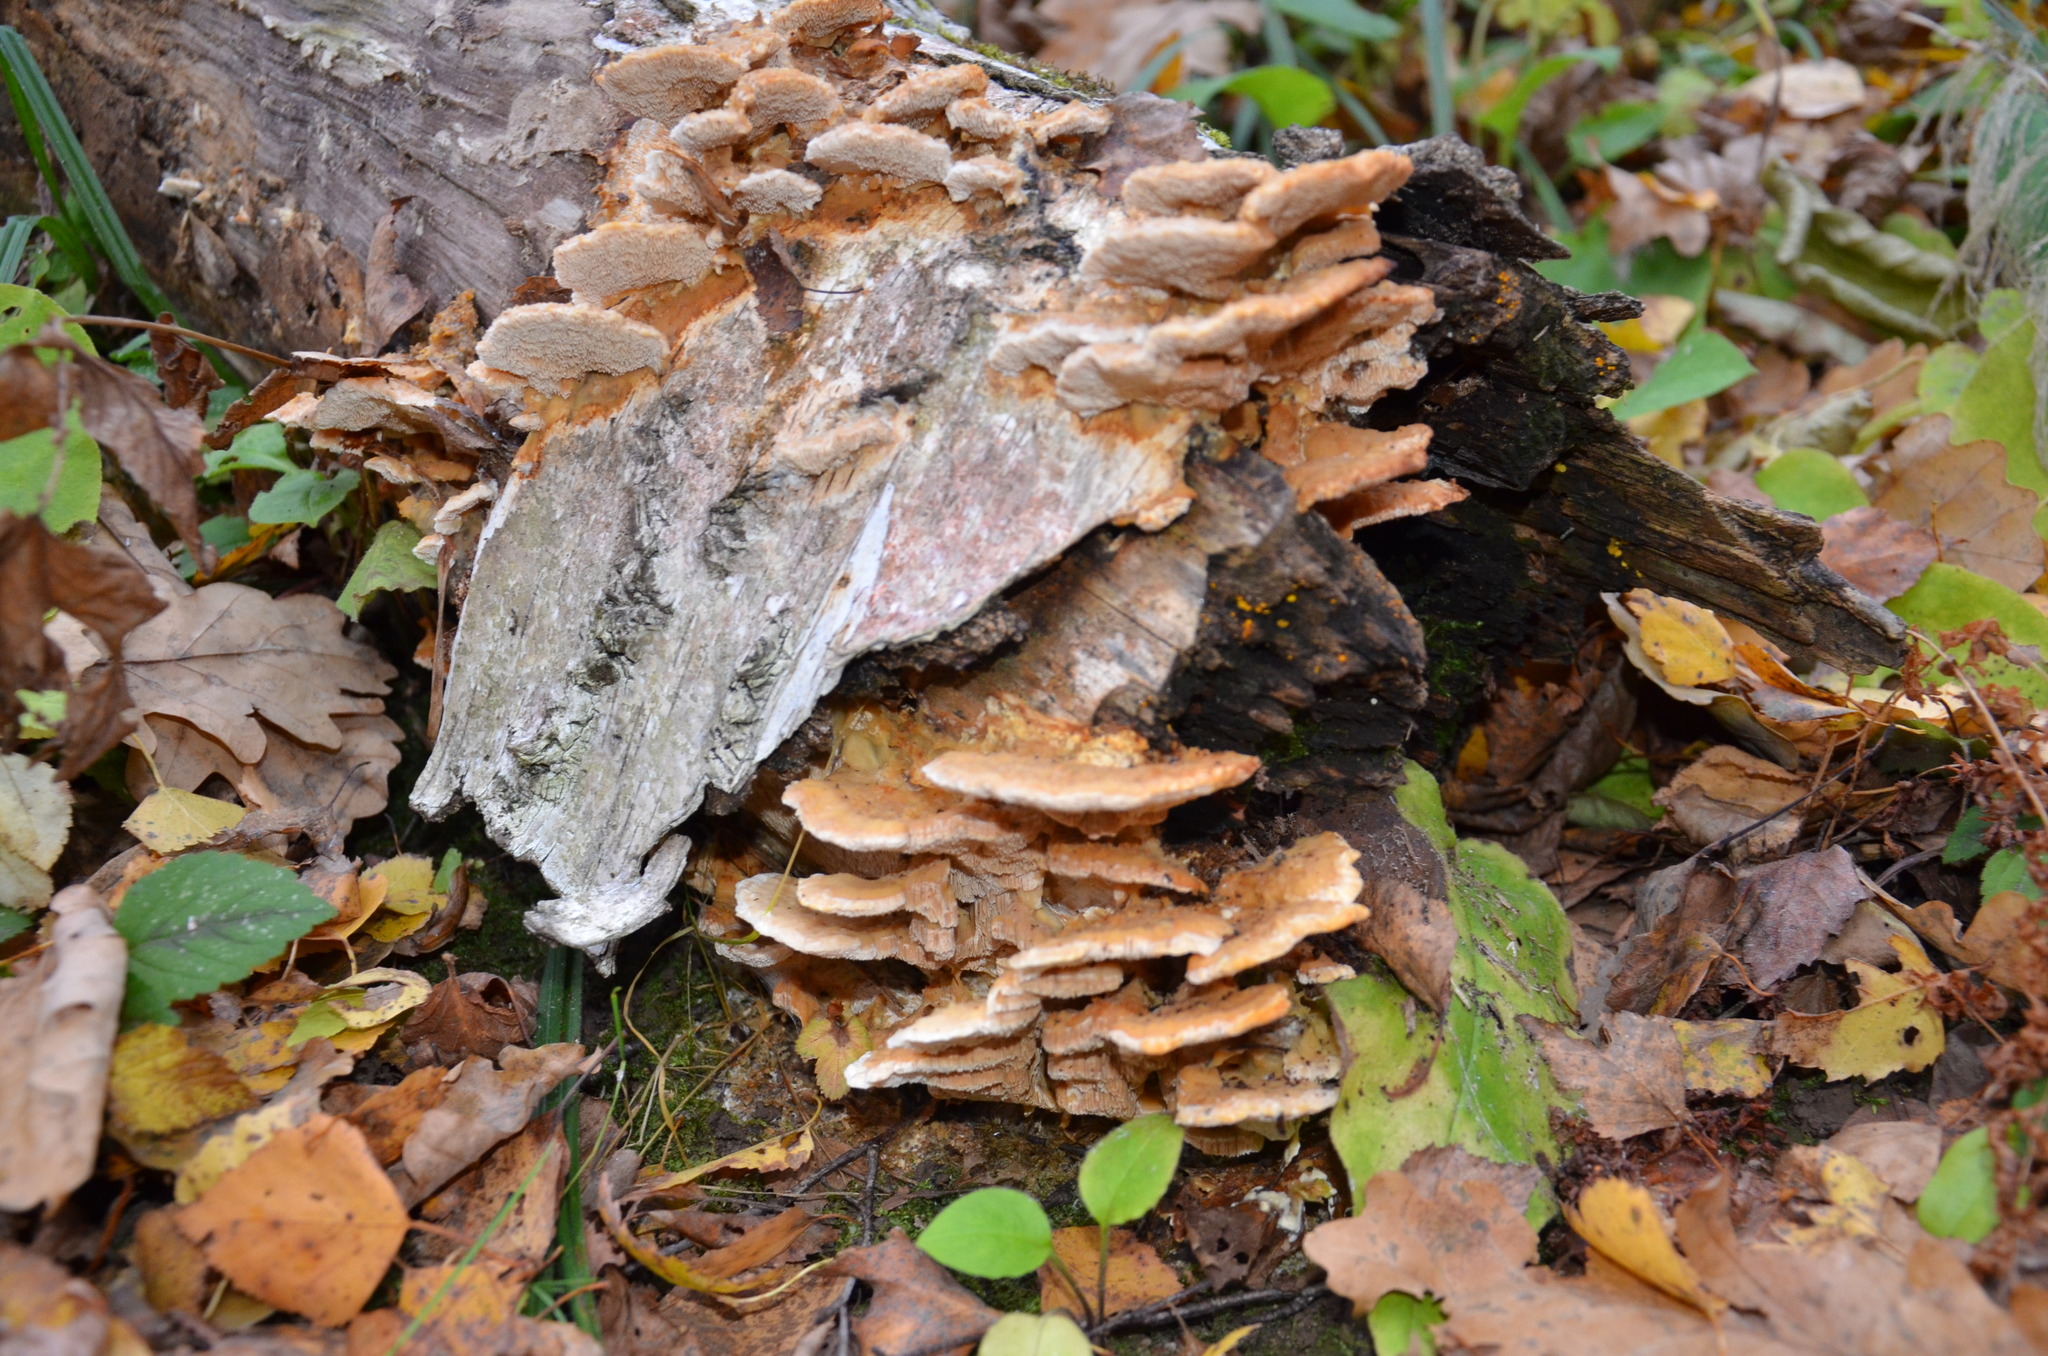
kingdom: Fungi
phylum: Basidiomycota
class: Agaricomycetes
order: Polyporales
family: Polyporaceae
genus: Trametes
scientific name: Trametes ochracea
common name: Ochre bracket
